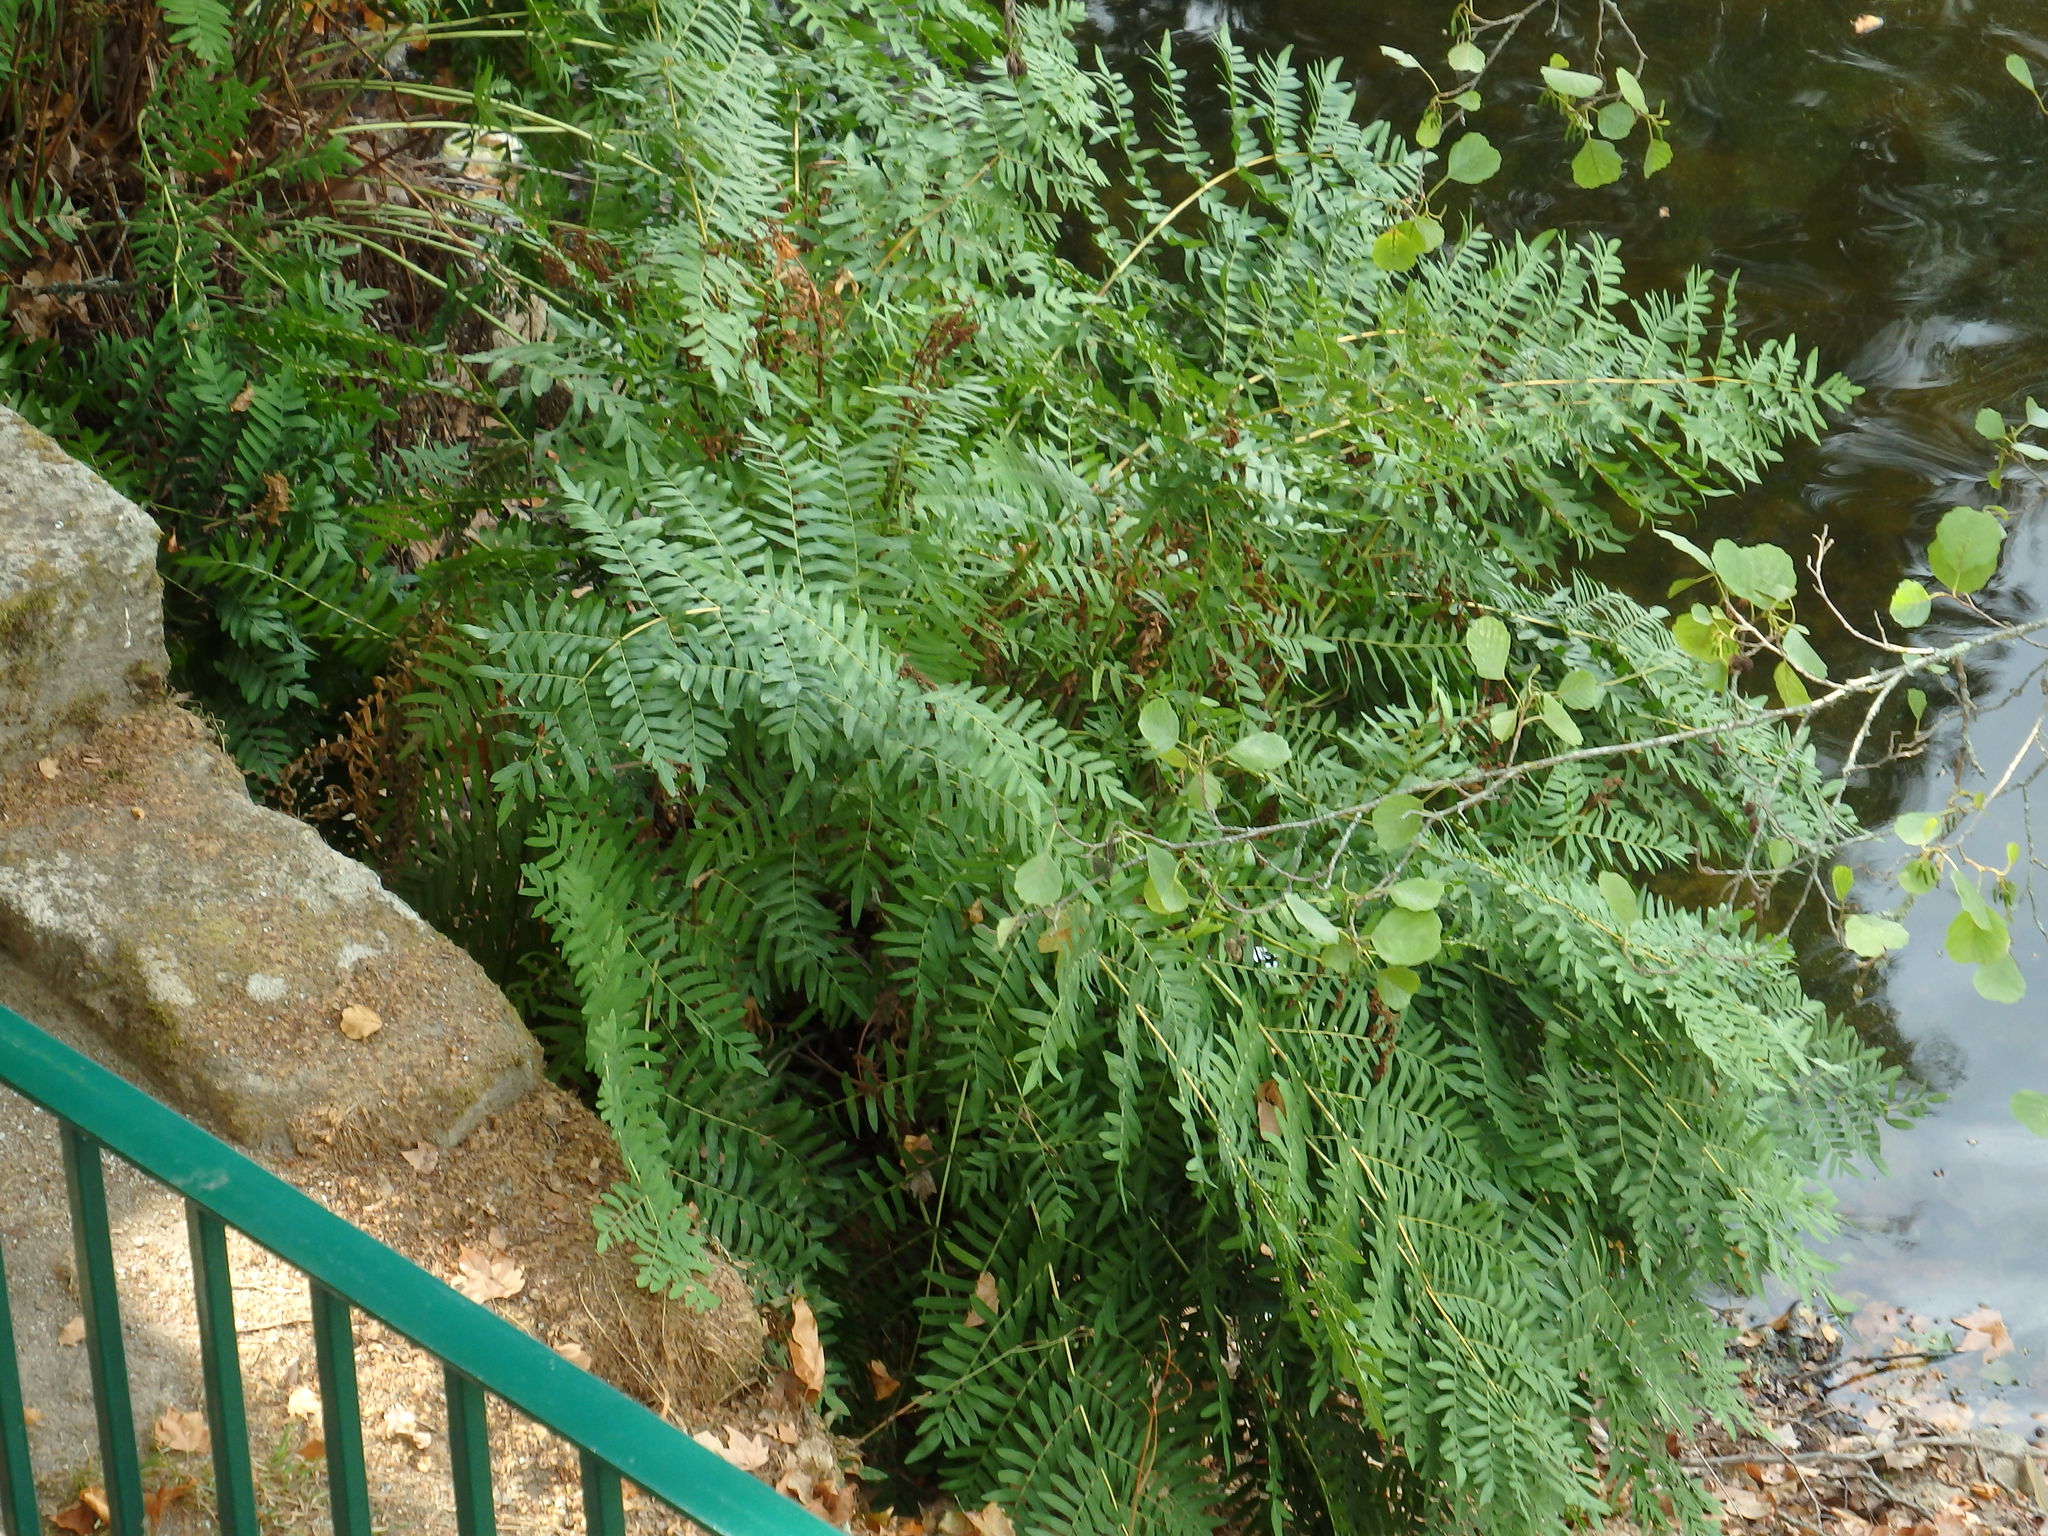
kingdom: Plantae
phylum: Tracheophyta
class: Polypodiopsida
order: Osmundales
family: Osmundaceae
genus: Osmunda
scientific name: Osmunda regalis
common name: Royal fern
